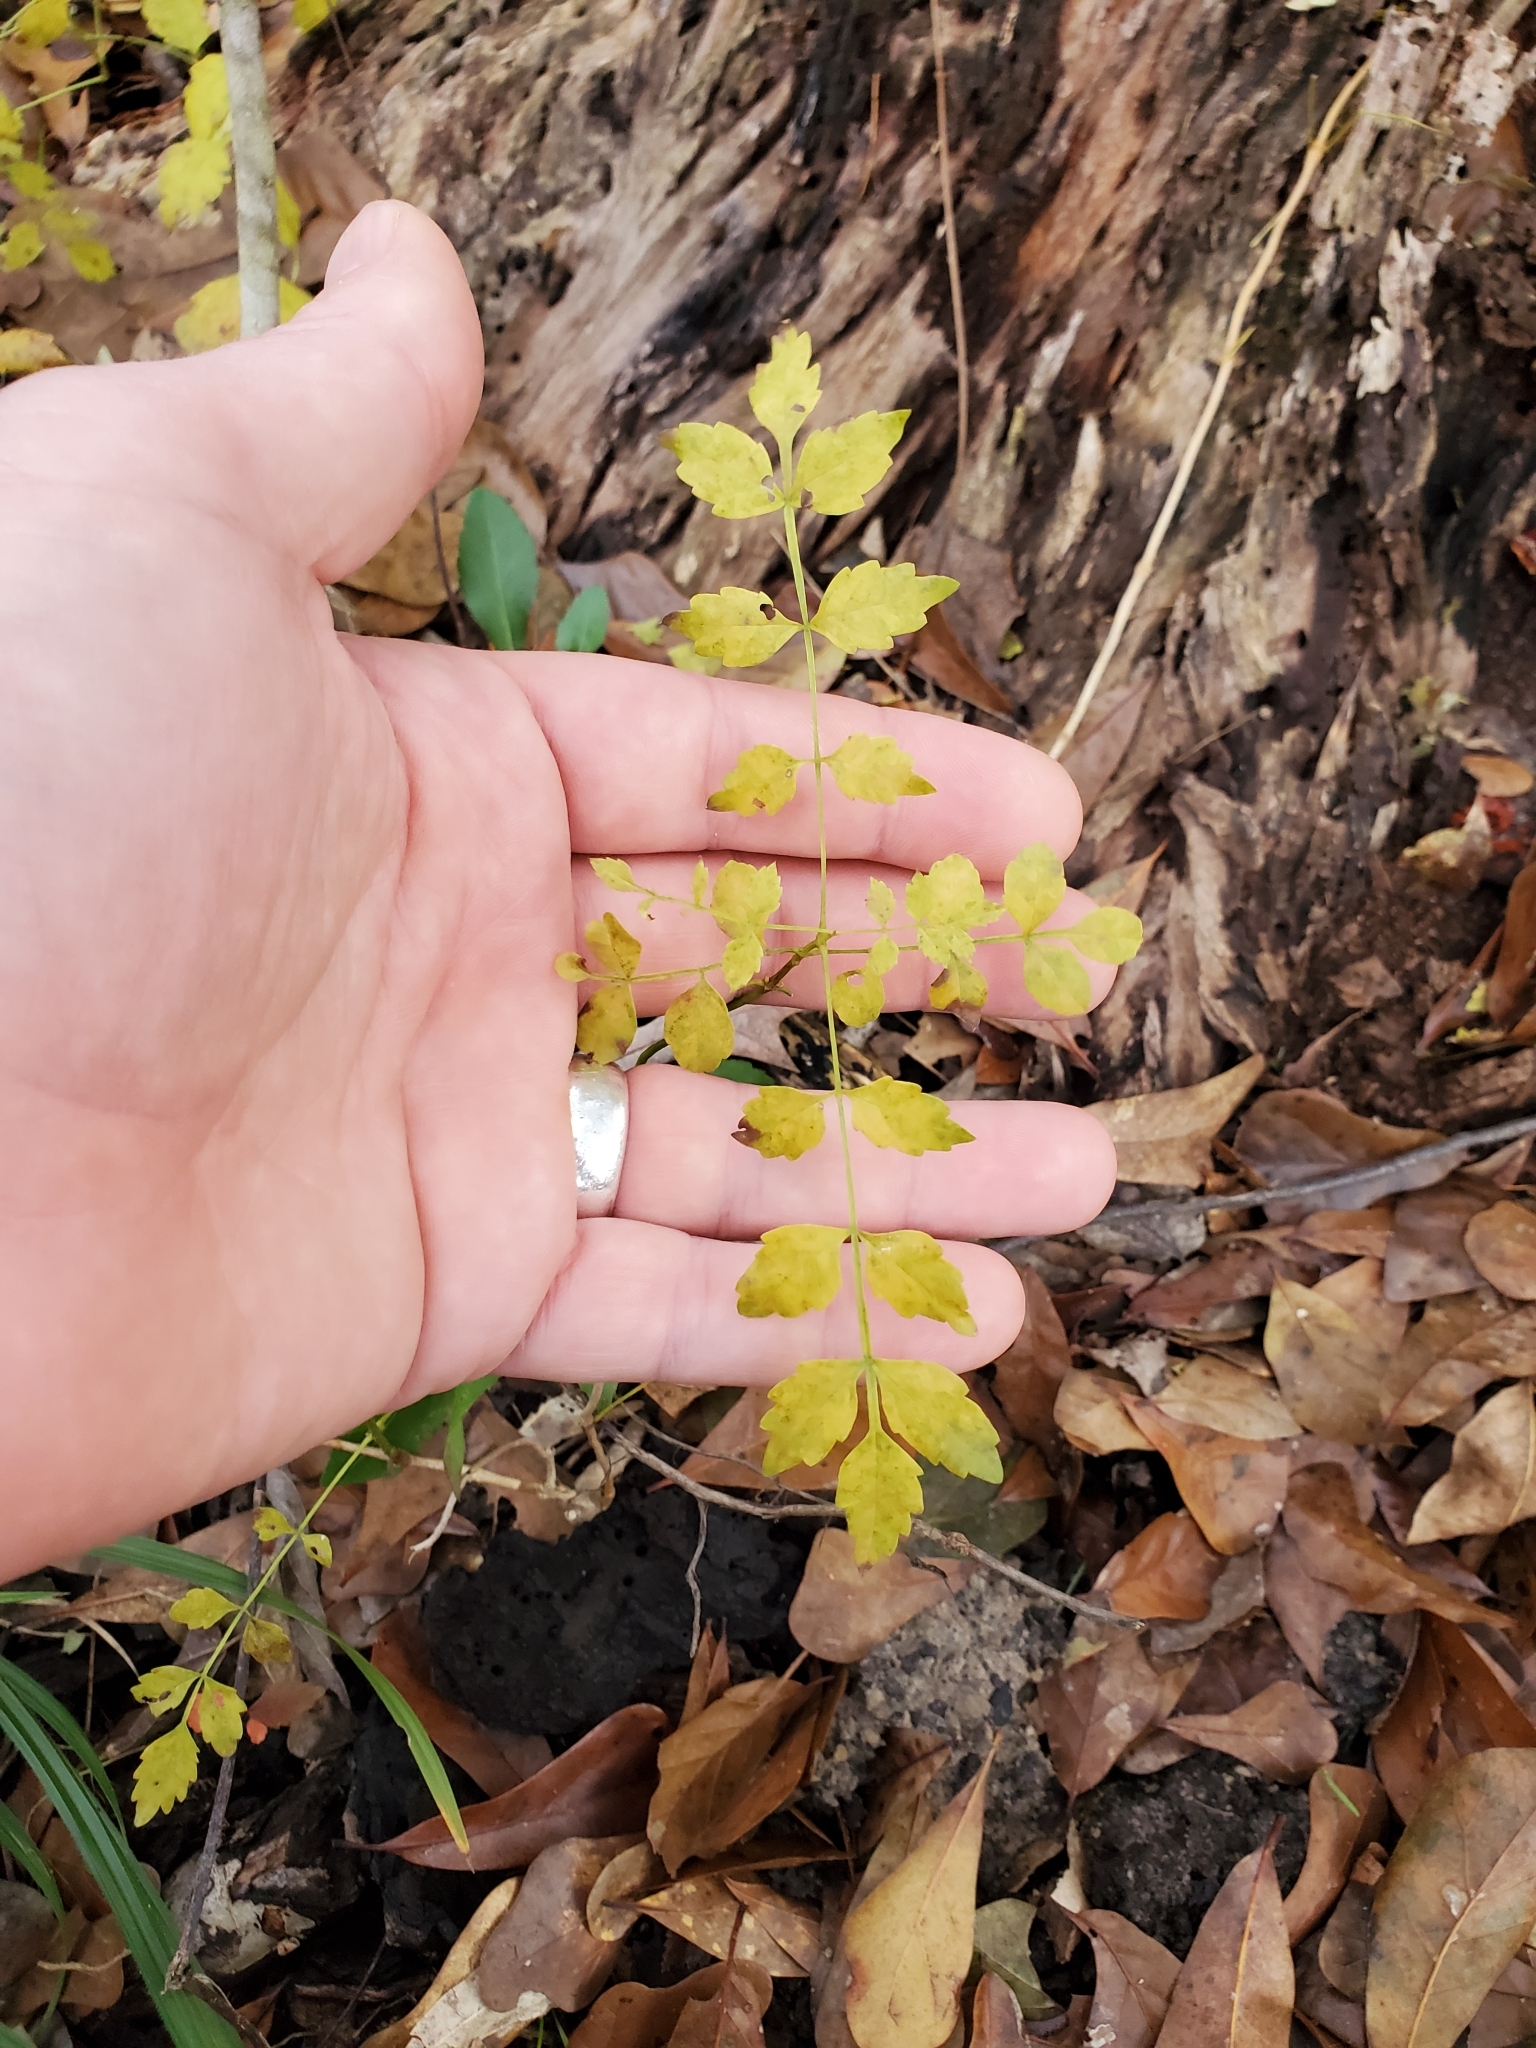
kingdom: Plantae
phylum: Tracheophyta
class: Magnoliopsida
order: Lamiales
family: Bignoniaceae
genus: Campsis
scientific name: Campsis radicans
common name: Trumpet-creeper
